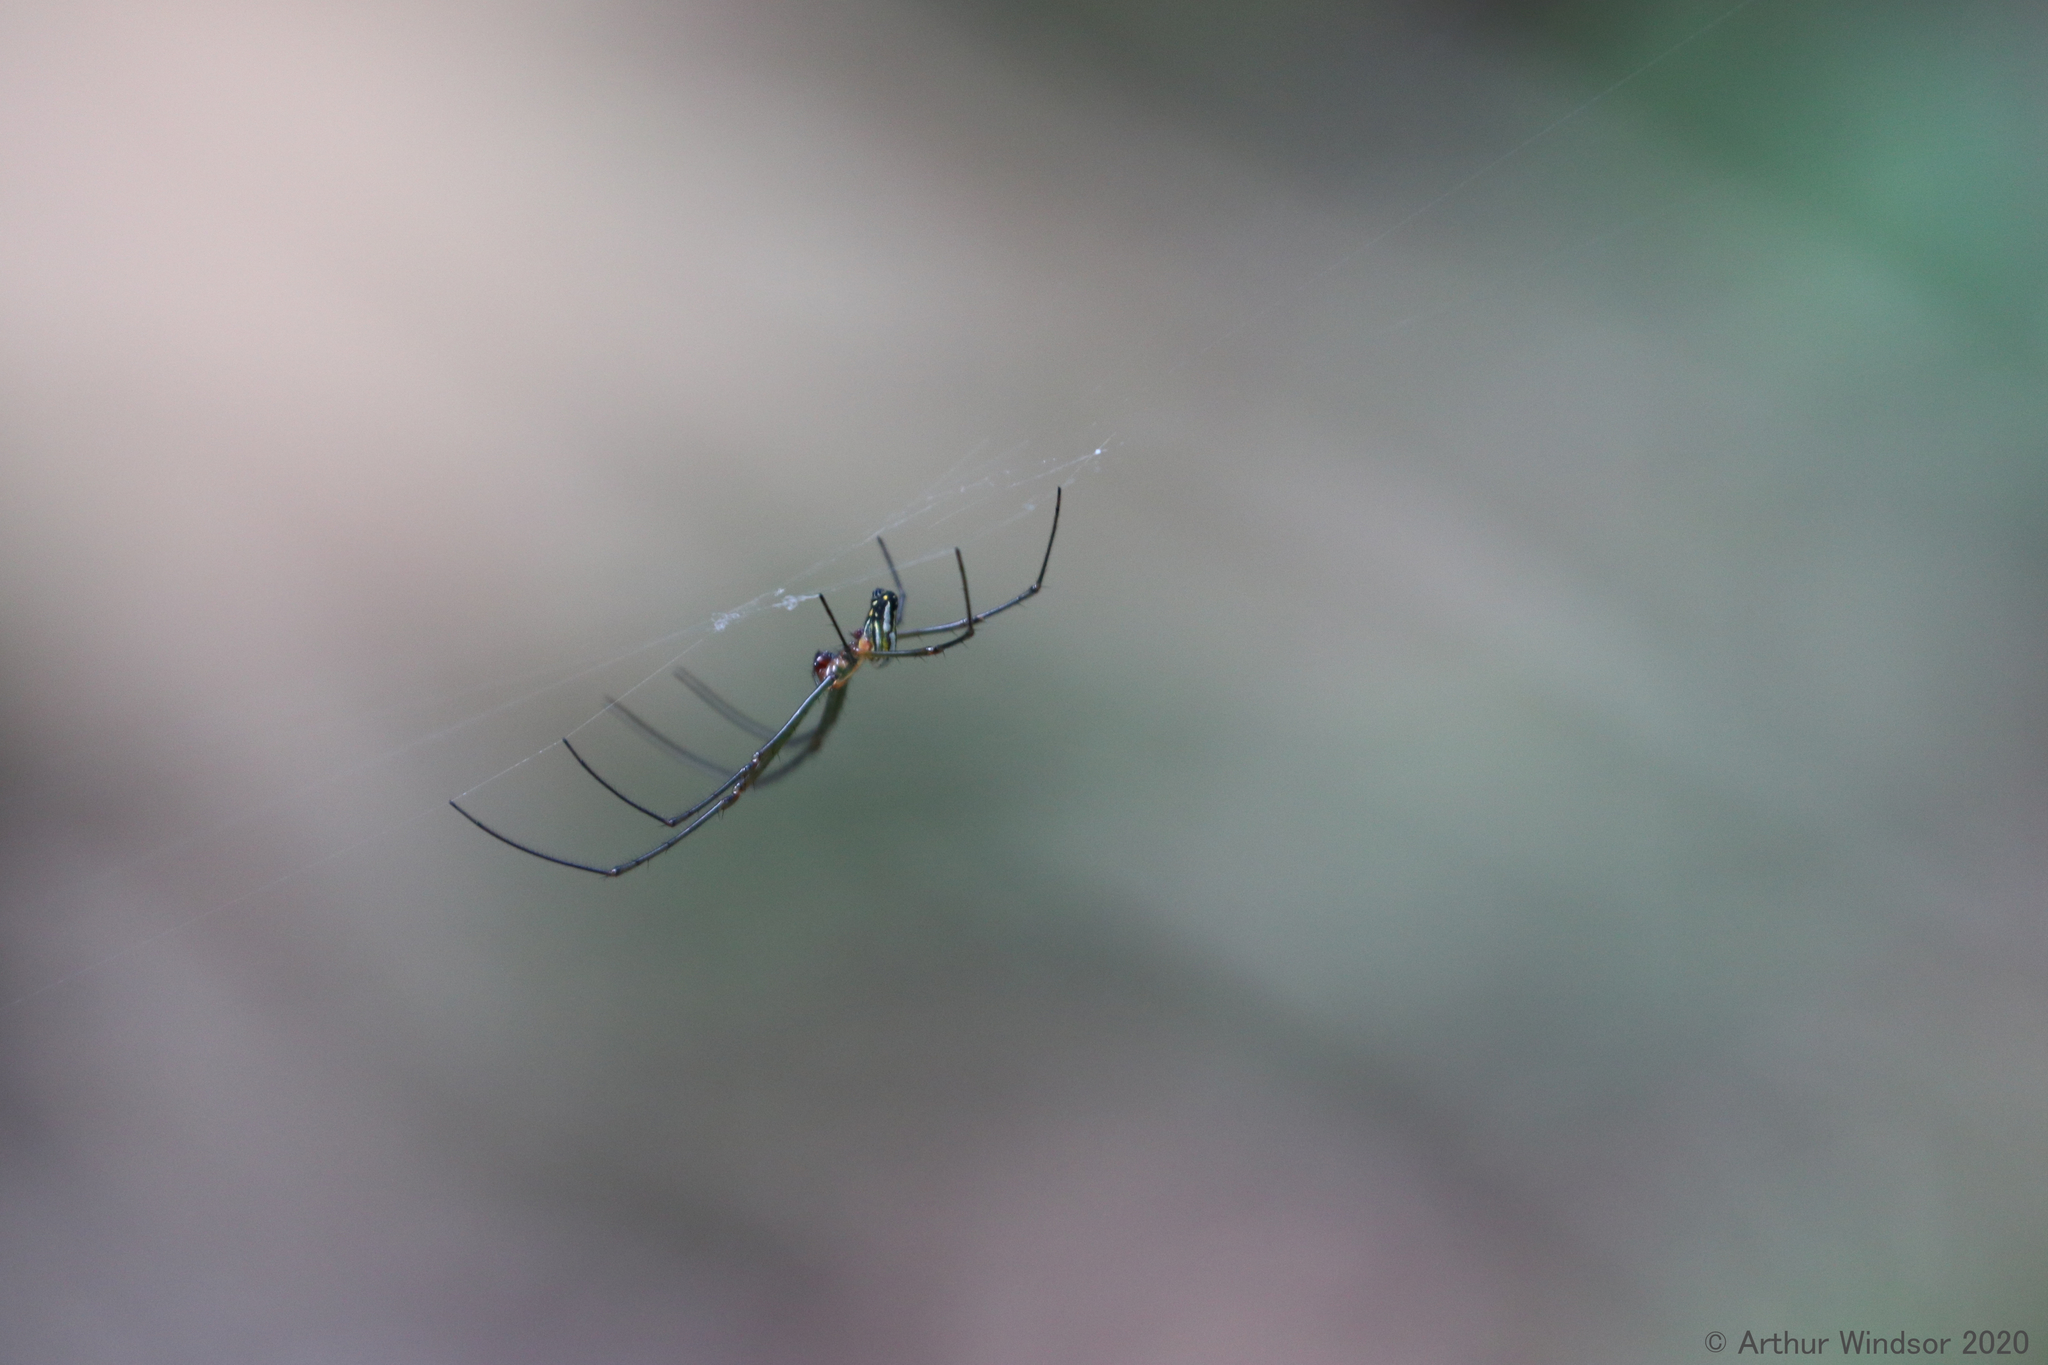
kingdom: Animalia
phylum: Arthropoda
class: Arachnida
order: Araneae
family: Tetragnathidae
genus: Leucauge
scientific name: Leucauge argyra
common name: Longjawed orb weavers
